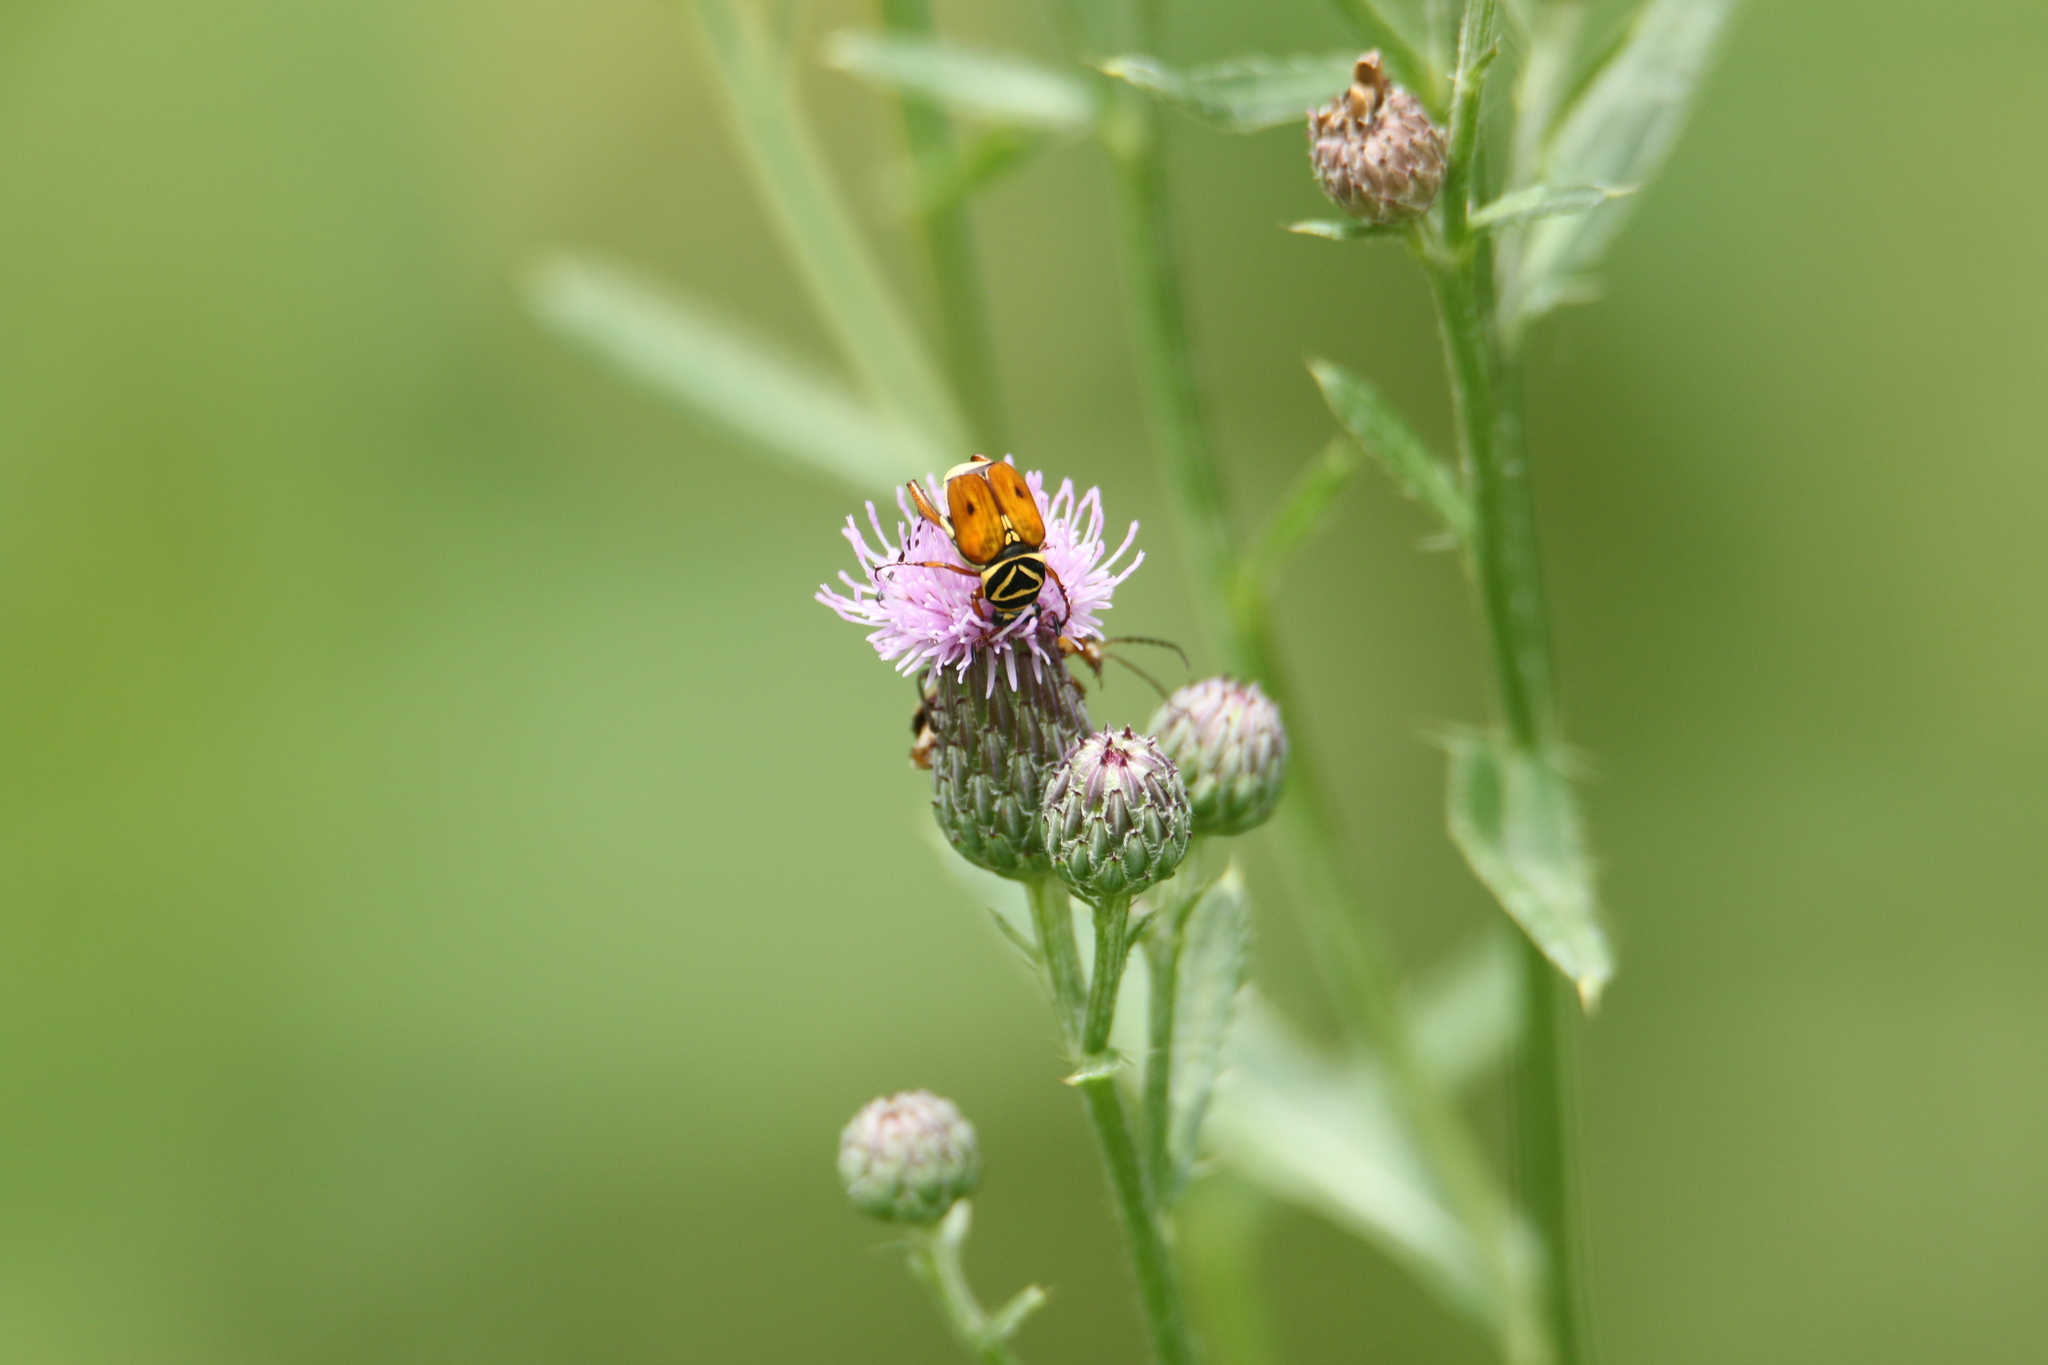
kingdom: Animalia
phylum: Arthropoda
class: Insecta
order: Coleoptera
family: Scarabaeidae
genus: Trigonopeltastes
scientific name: Trigonopeltastes delta
